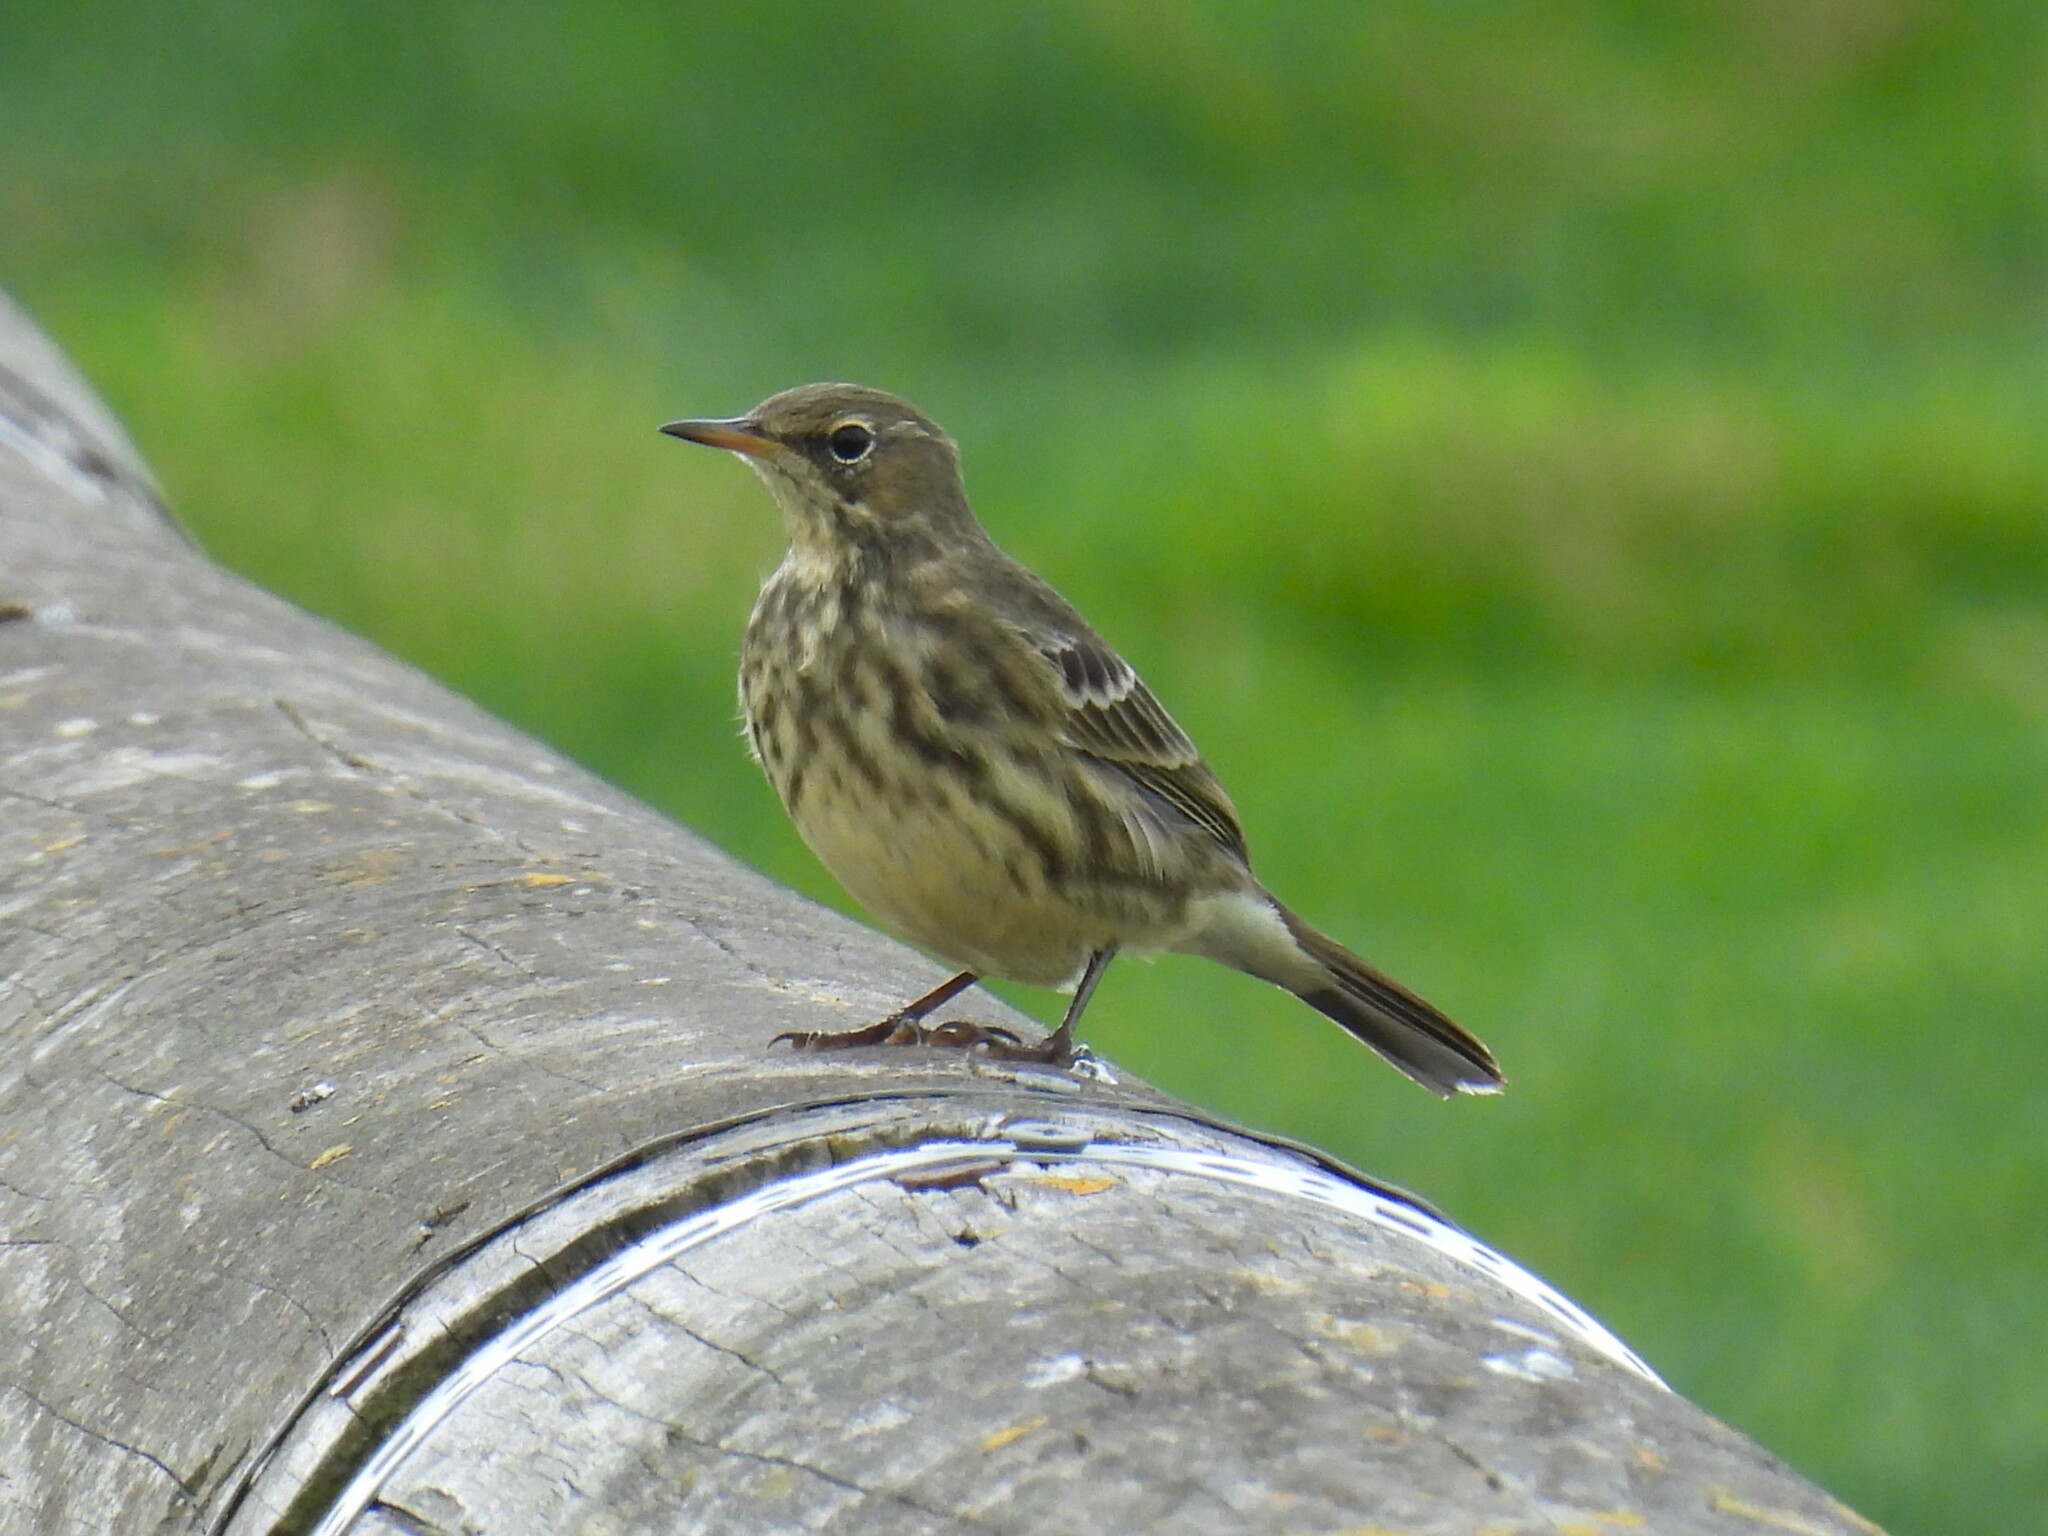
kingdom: Animalia
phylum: Chordata
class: Aves
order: Passeriformes
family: Motacillidae
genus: Anthus
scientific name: Anthus petrosus
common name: Eurasian rock pipit
